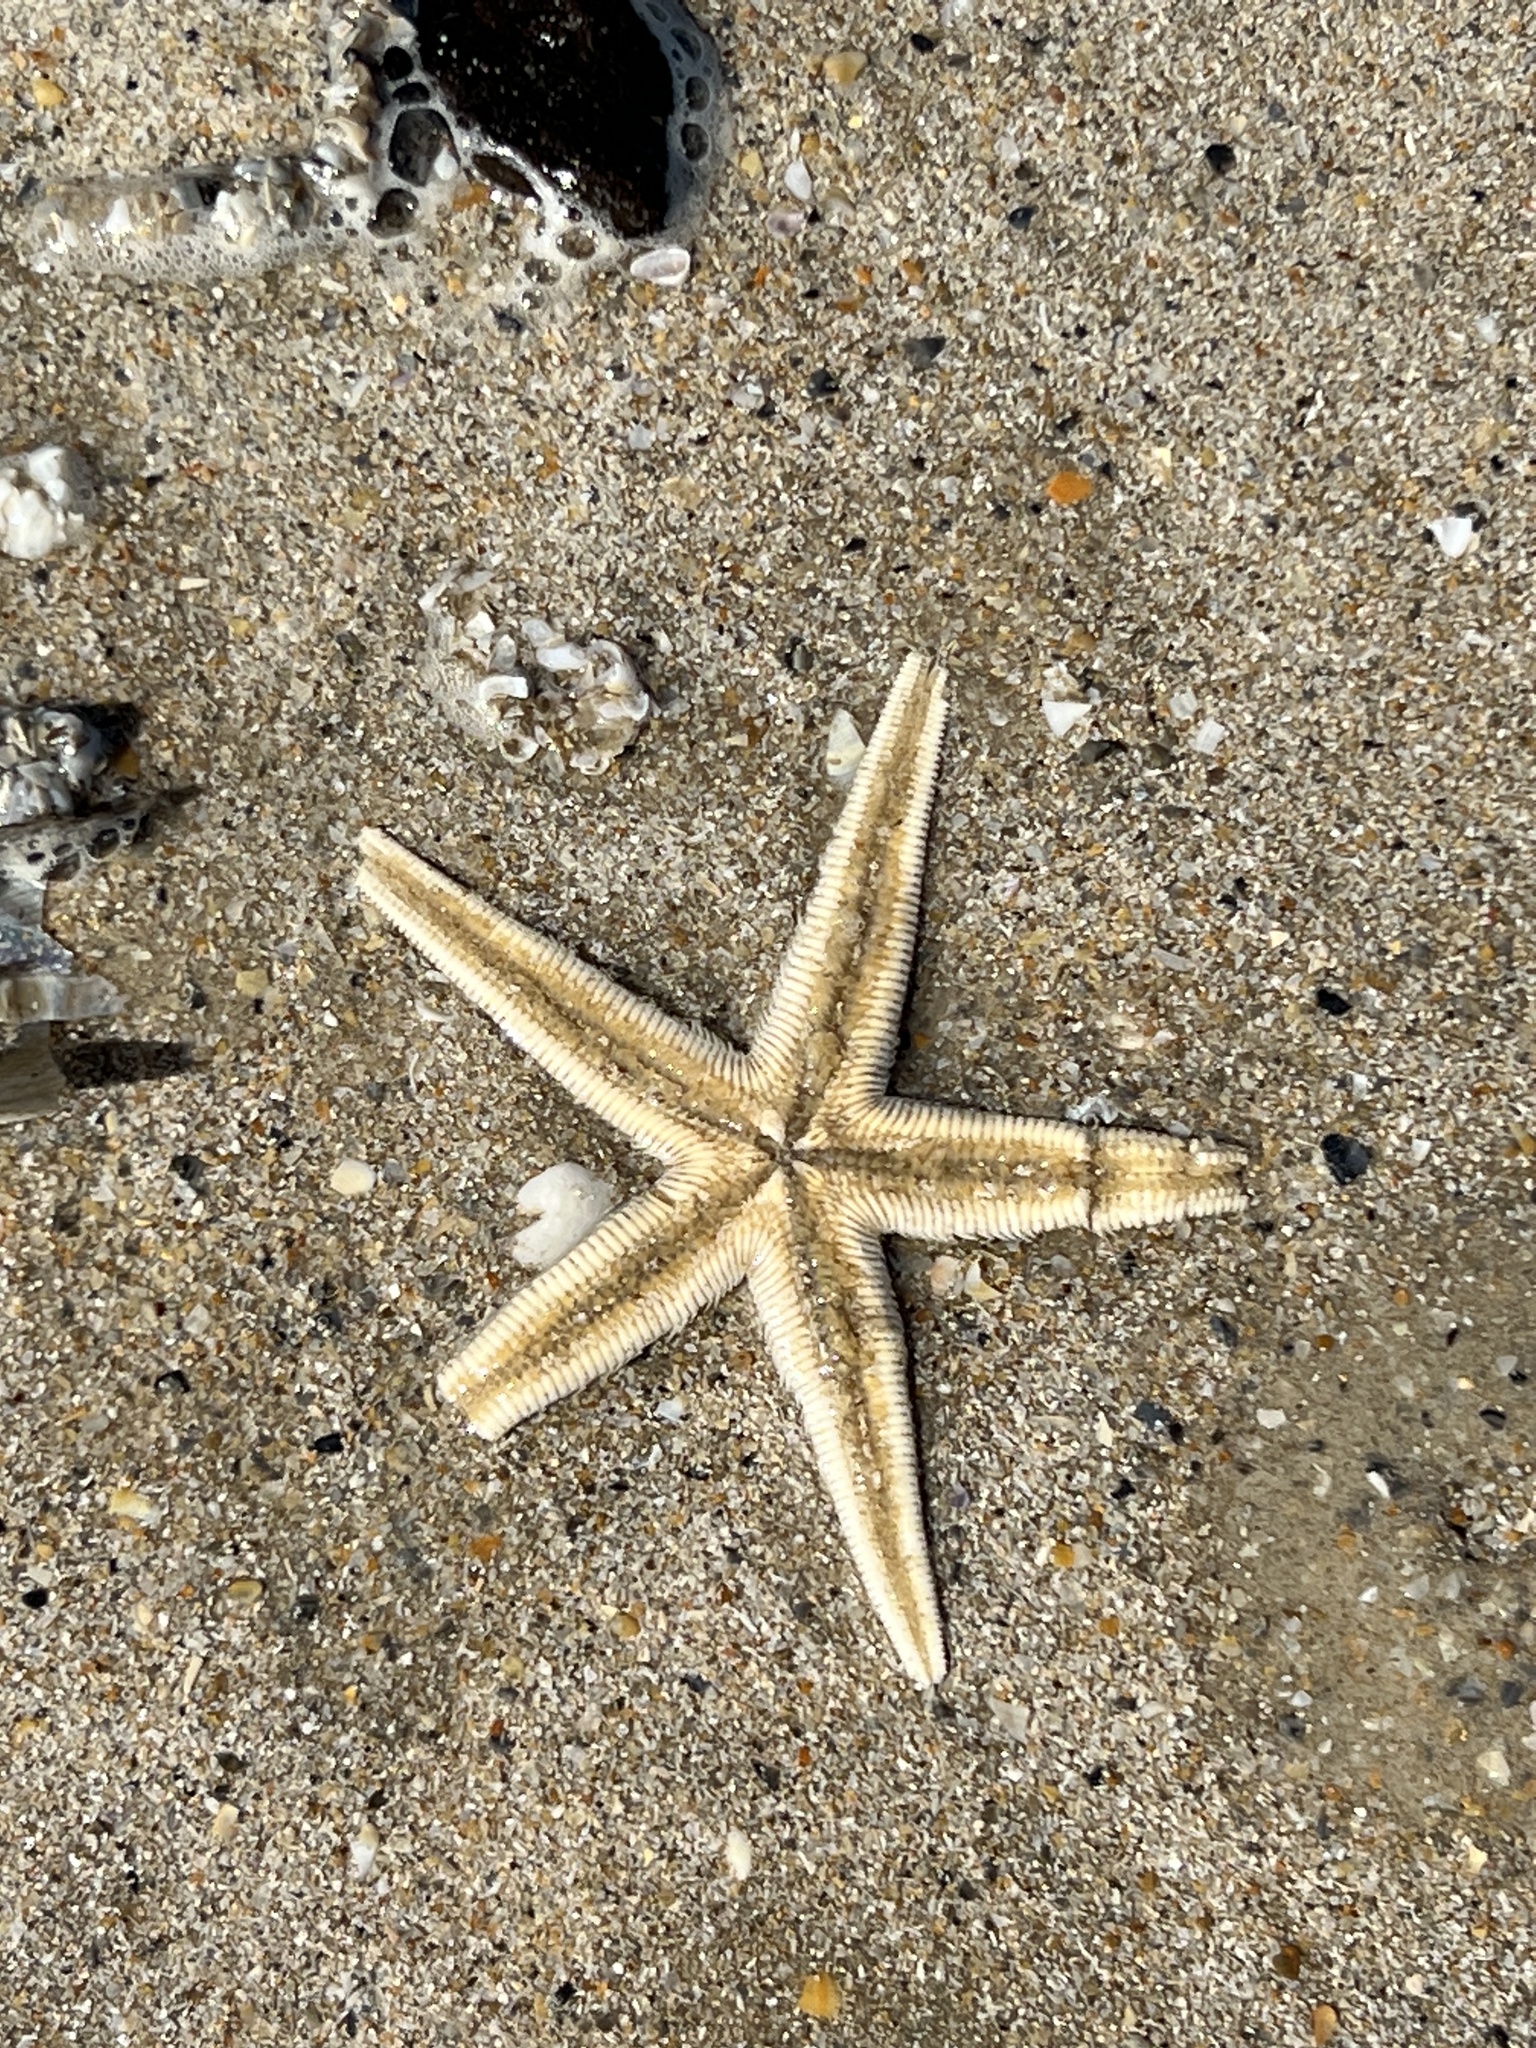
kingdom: Animalia
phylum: Echinodermata
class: Asteroidea
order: Paxillosida
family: Luidiidae
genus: Luidia
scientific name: Luidia clathrata
